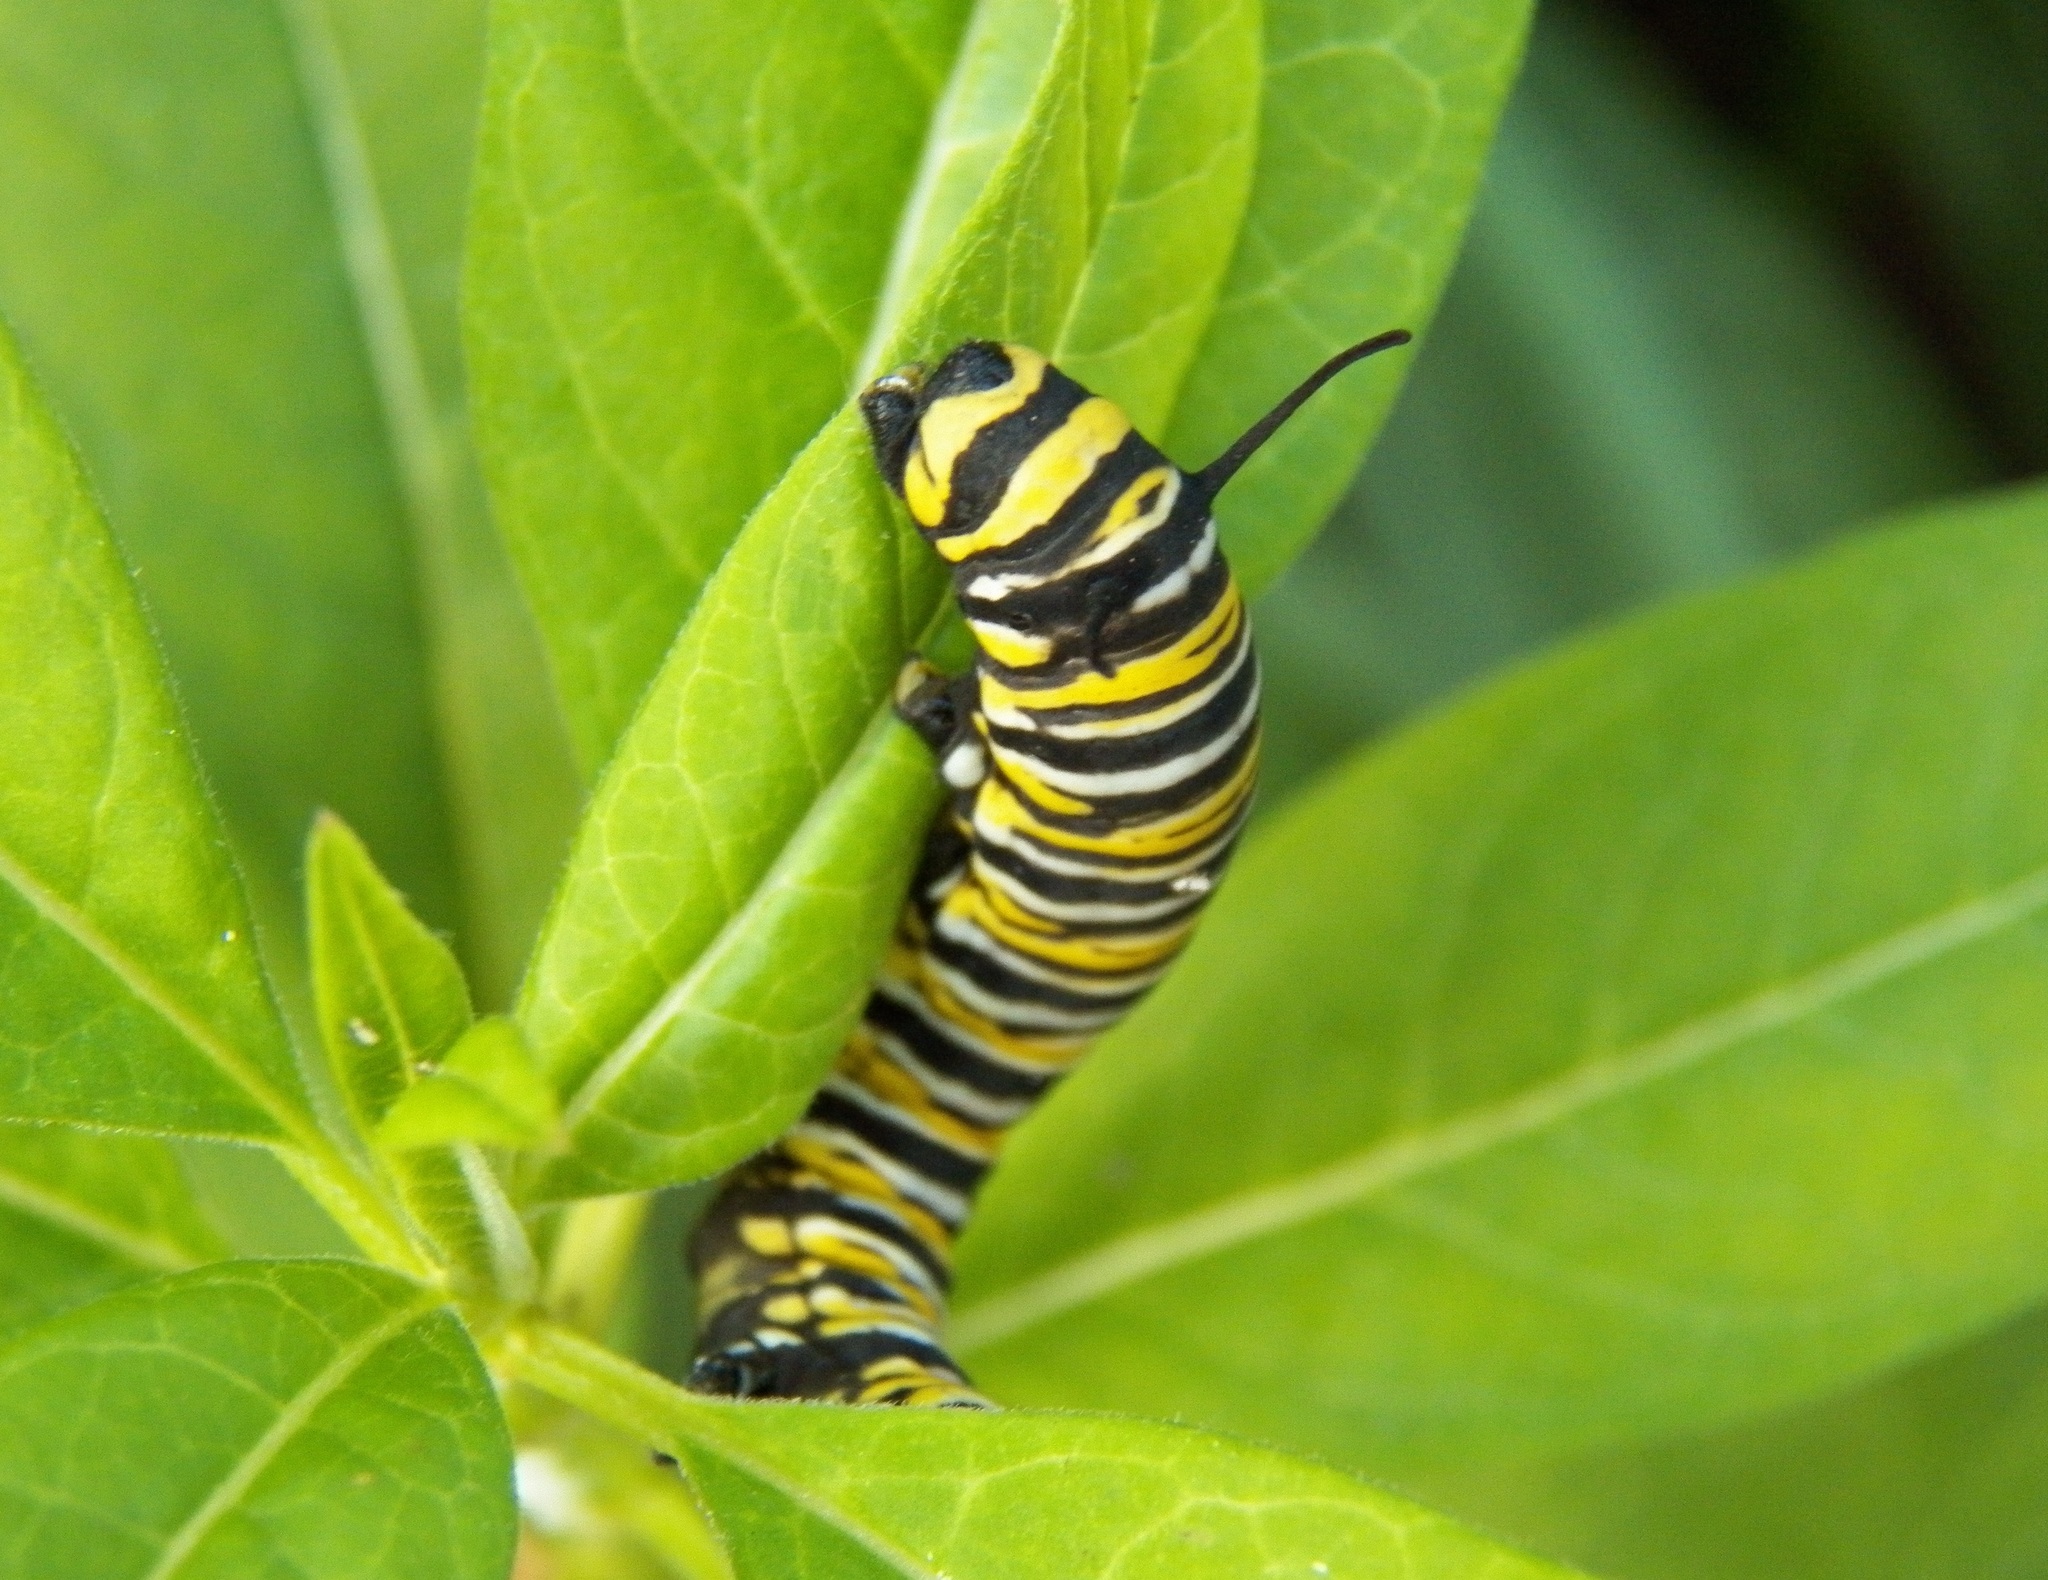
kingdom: Animalia
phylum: Arthropoda
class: Insecta
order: Lepidoptera
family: Nymphalidae
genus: Danaus
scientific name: Danaus plexippus
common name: Monarch
